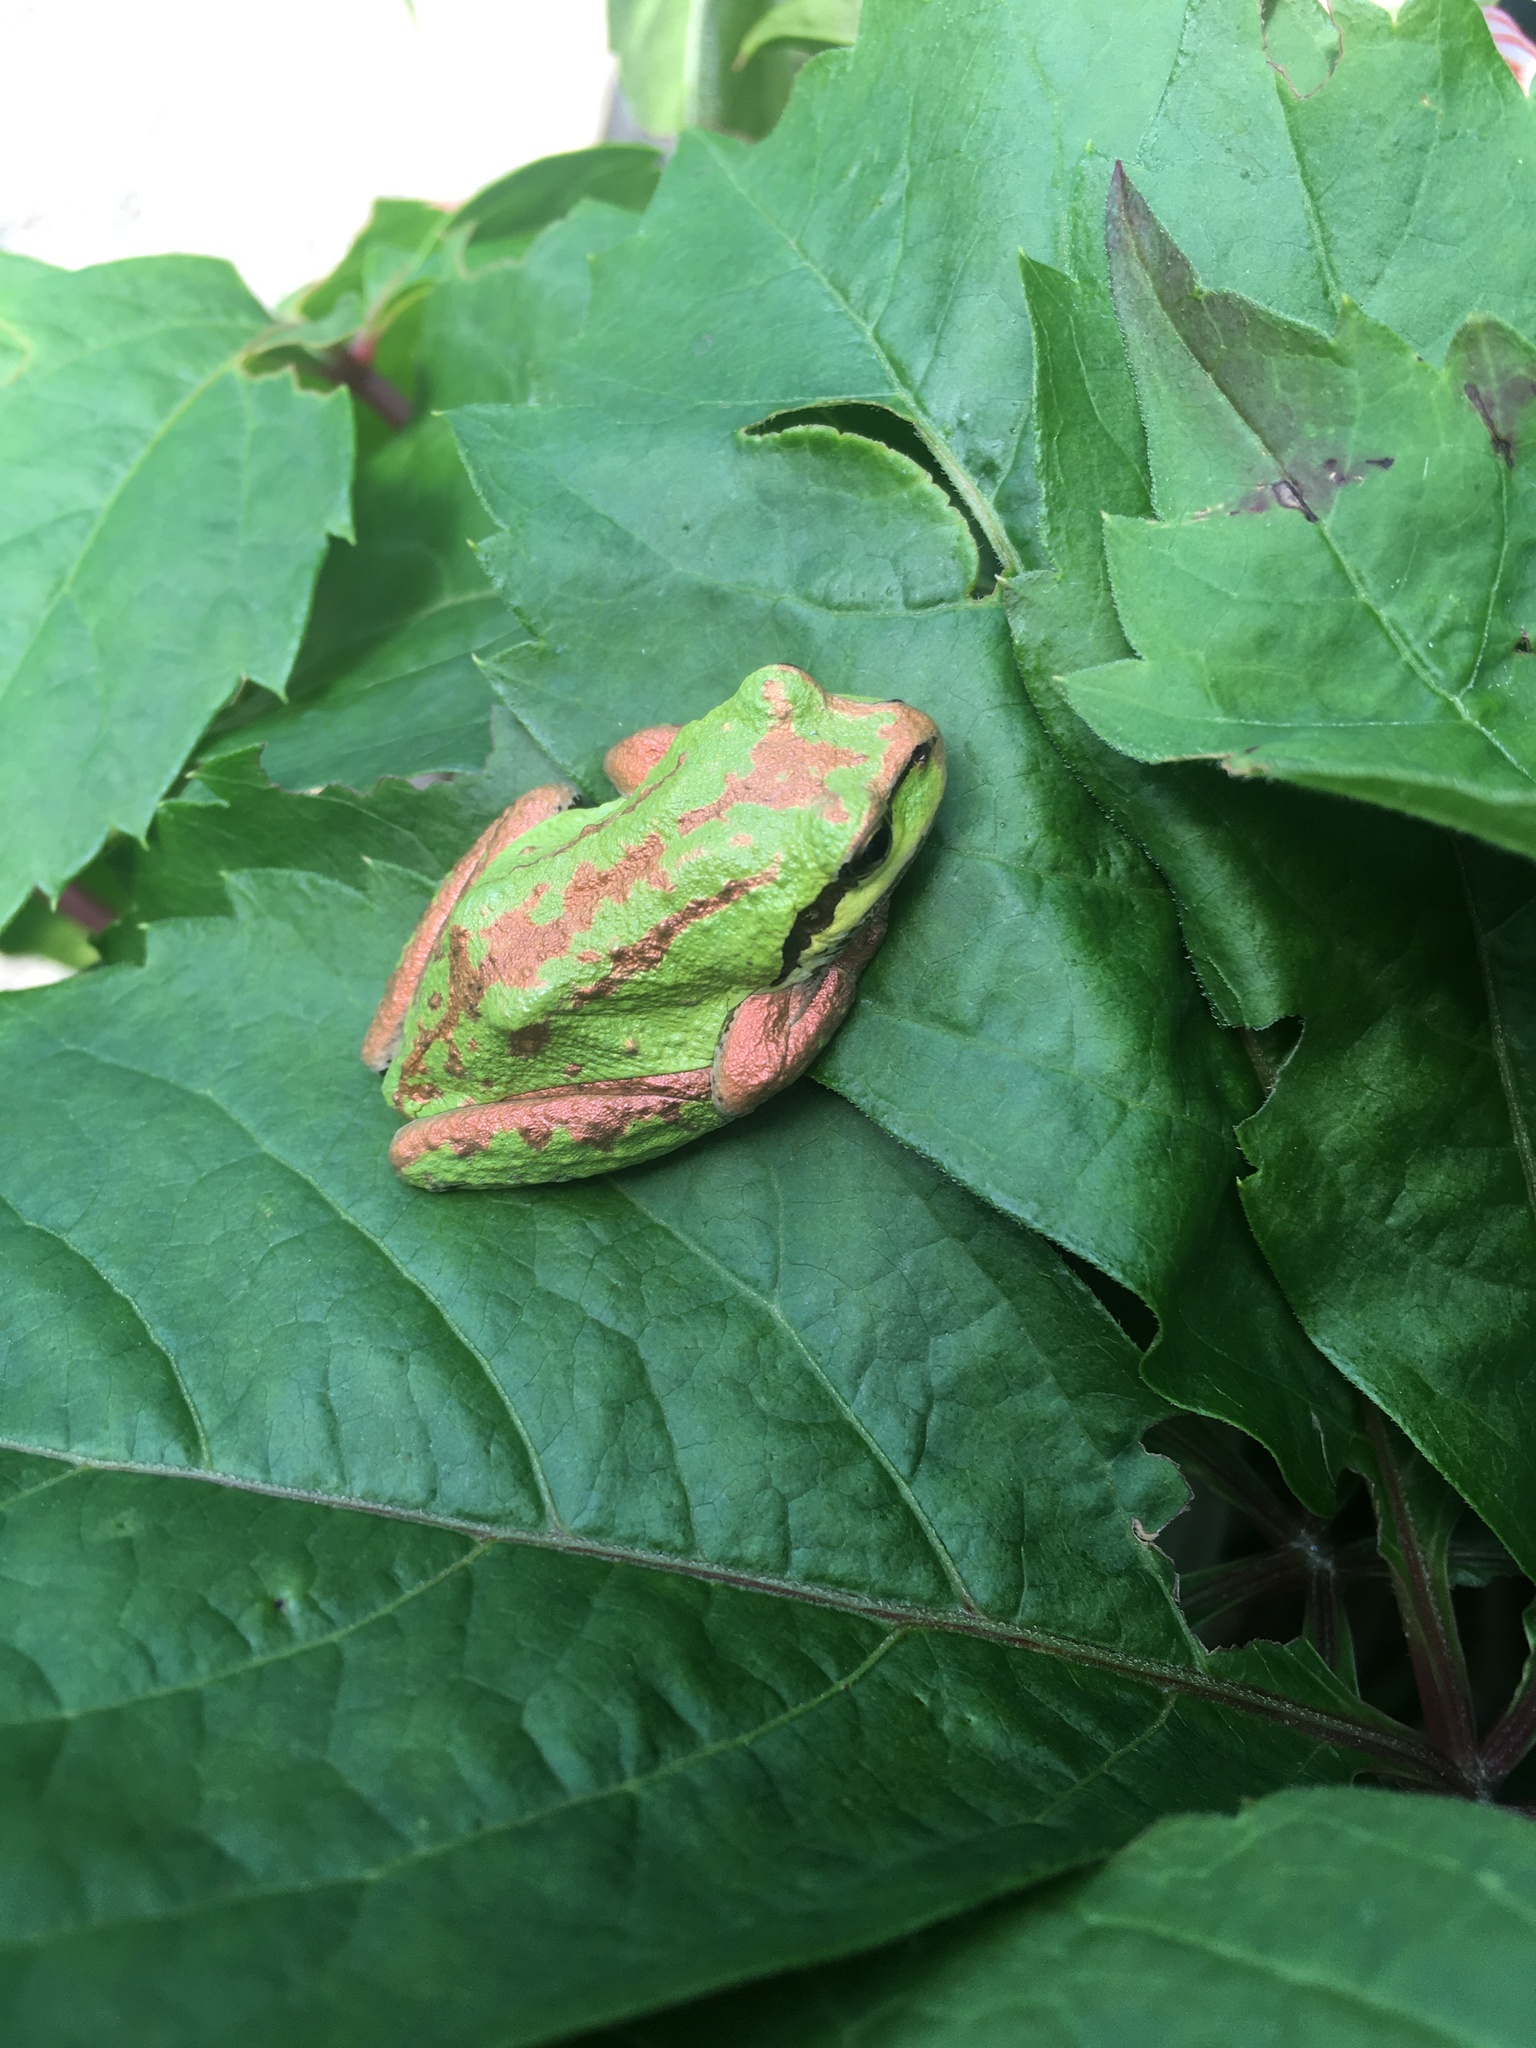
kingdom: Animalia
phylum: Chordata
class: Amphibia
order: Anura
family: Hylidae
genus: Pseudacris
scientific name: Pseudacris regilla
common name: Pacific chorus frog
